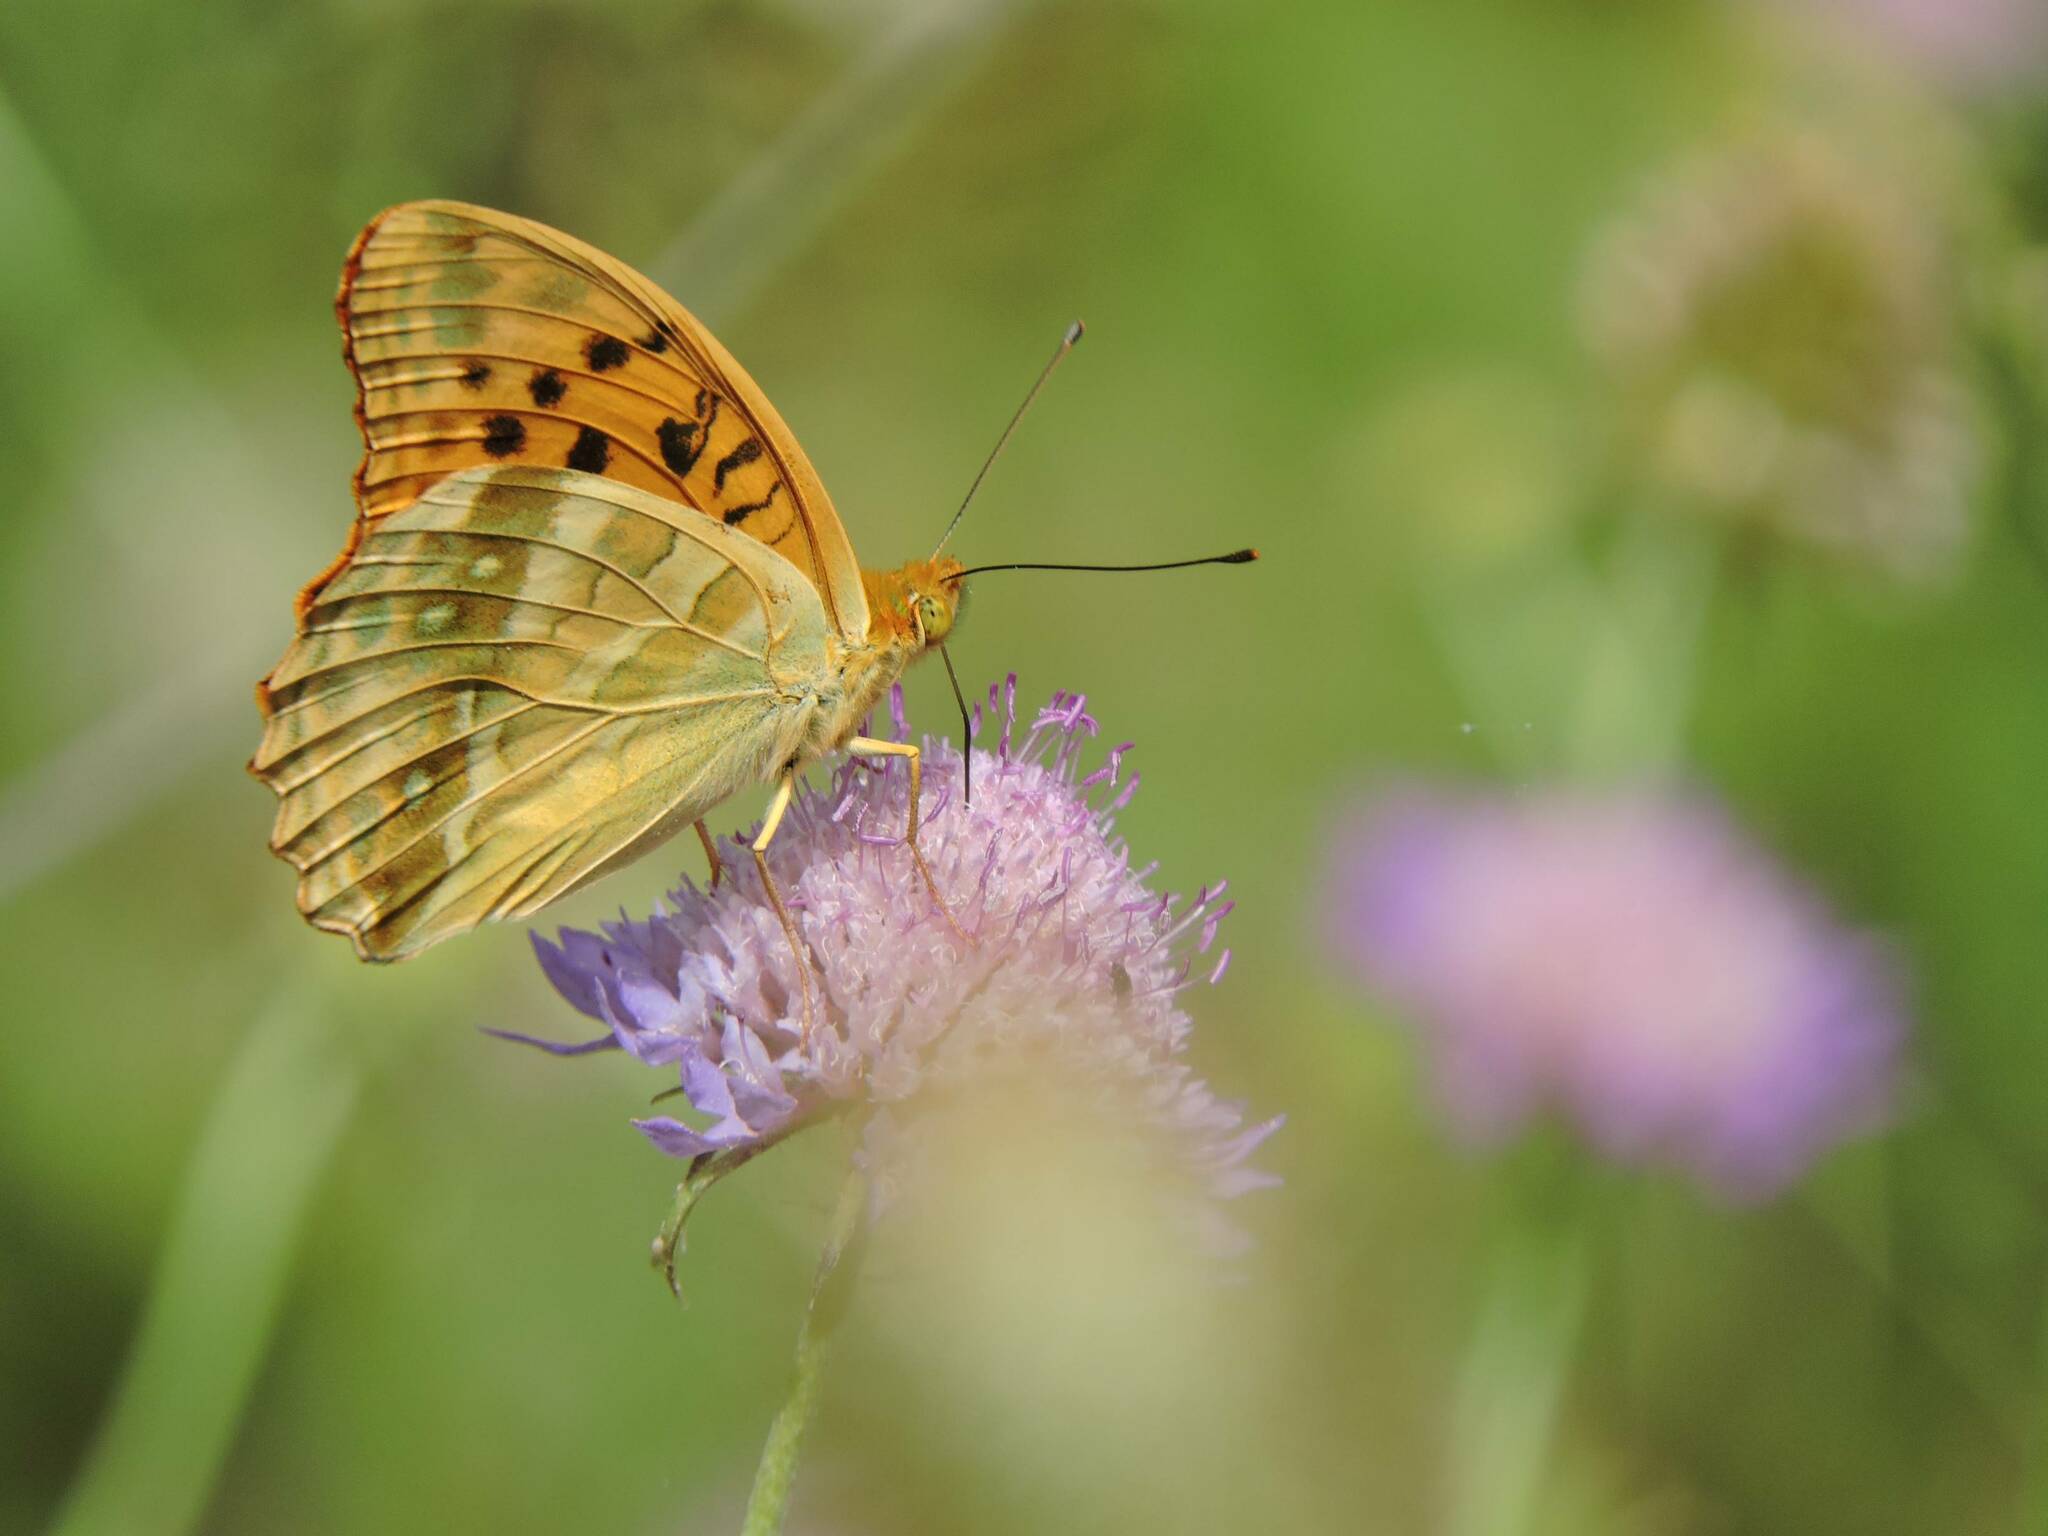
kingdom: Animalia
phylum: Arthropoda
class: Insecta
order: Lepidoptera
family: Nymphalidae
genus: Argynnis
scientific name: Argynnis paphia
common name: Silver-washed fritillary
